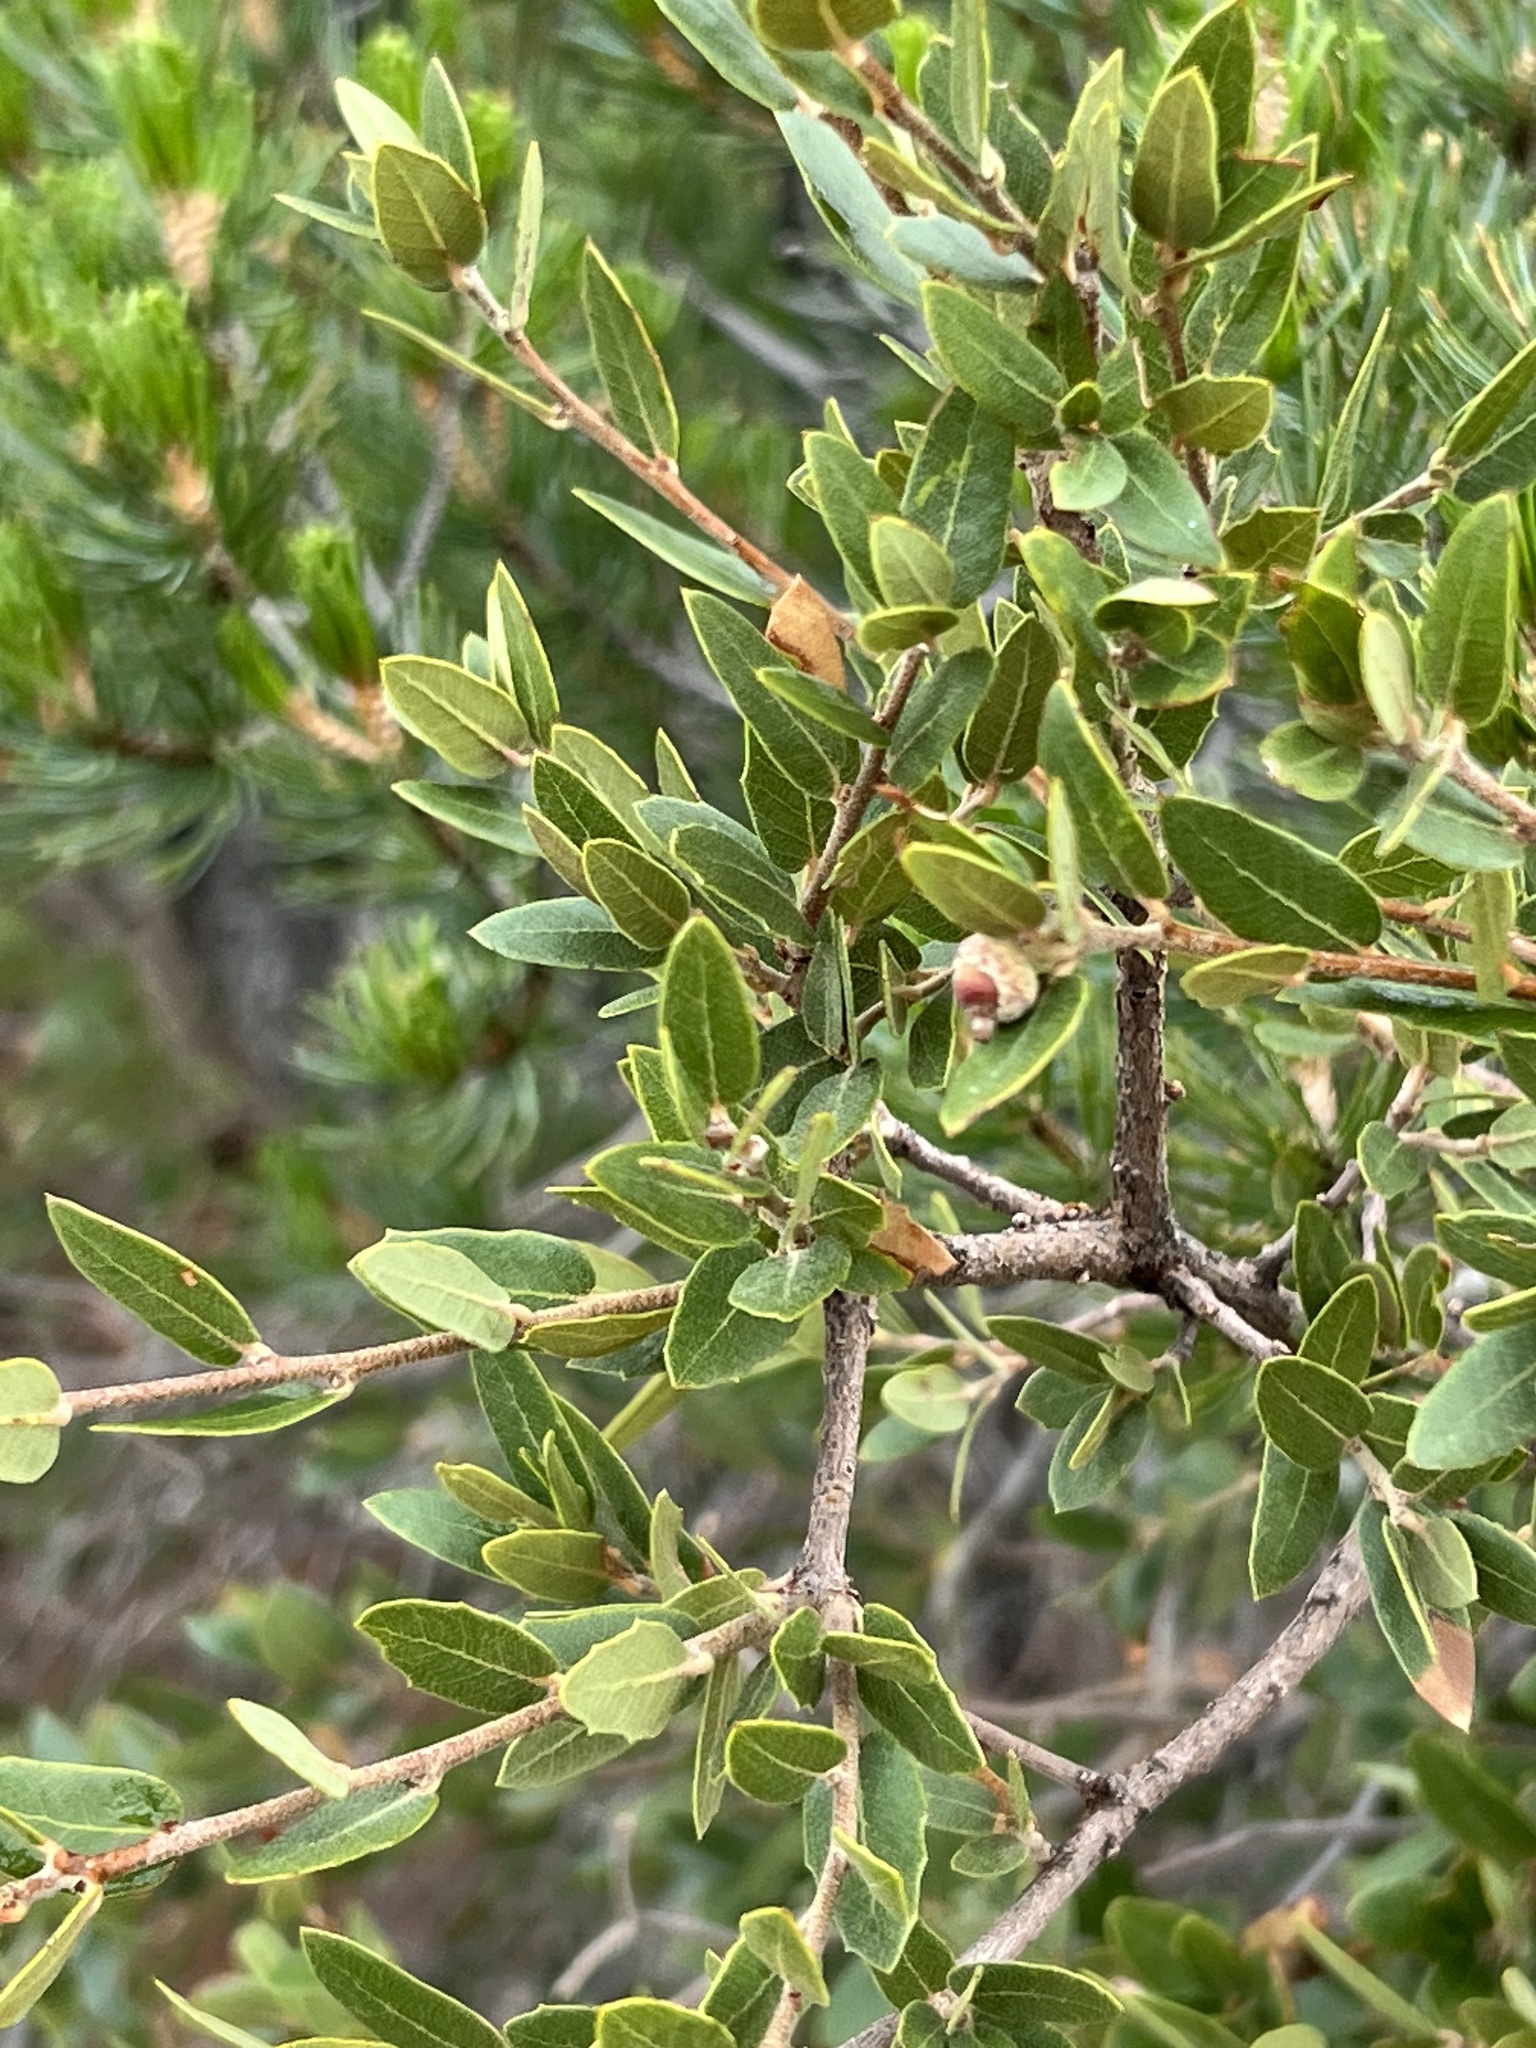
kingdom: Plantae
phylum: Tracheophyta
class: Magnoliopsida
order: Fagales
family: Fagaceae
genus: Quercus
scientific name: Quercus toumeyi
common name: Toumey oak
